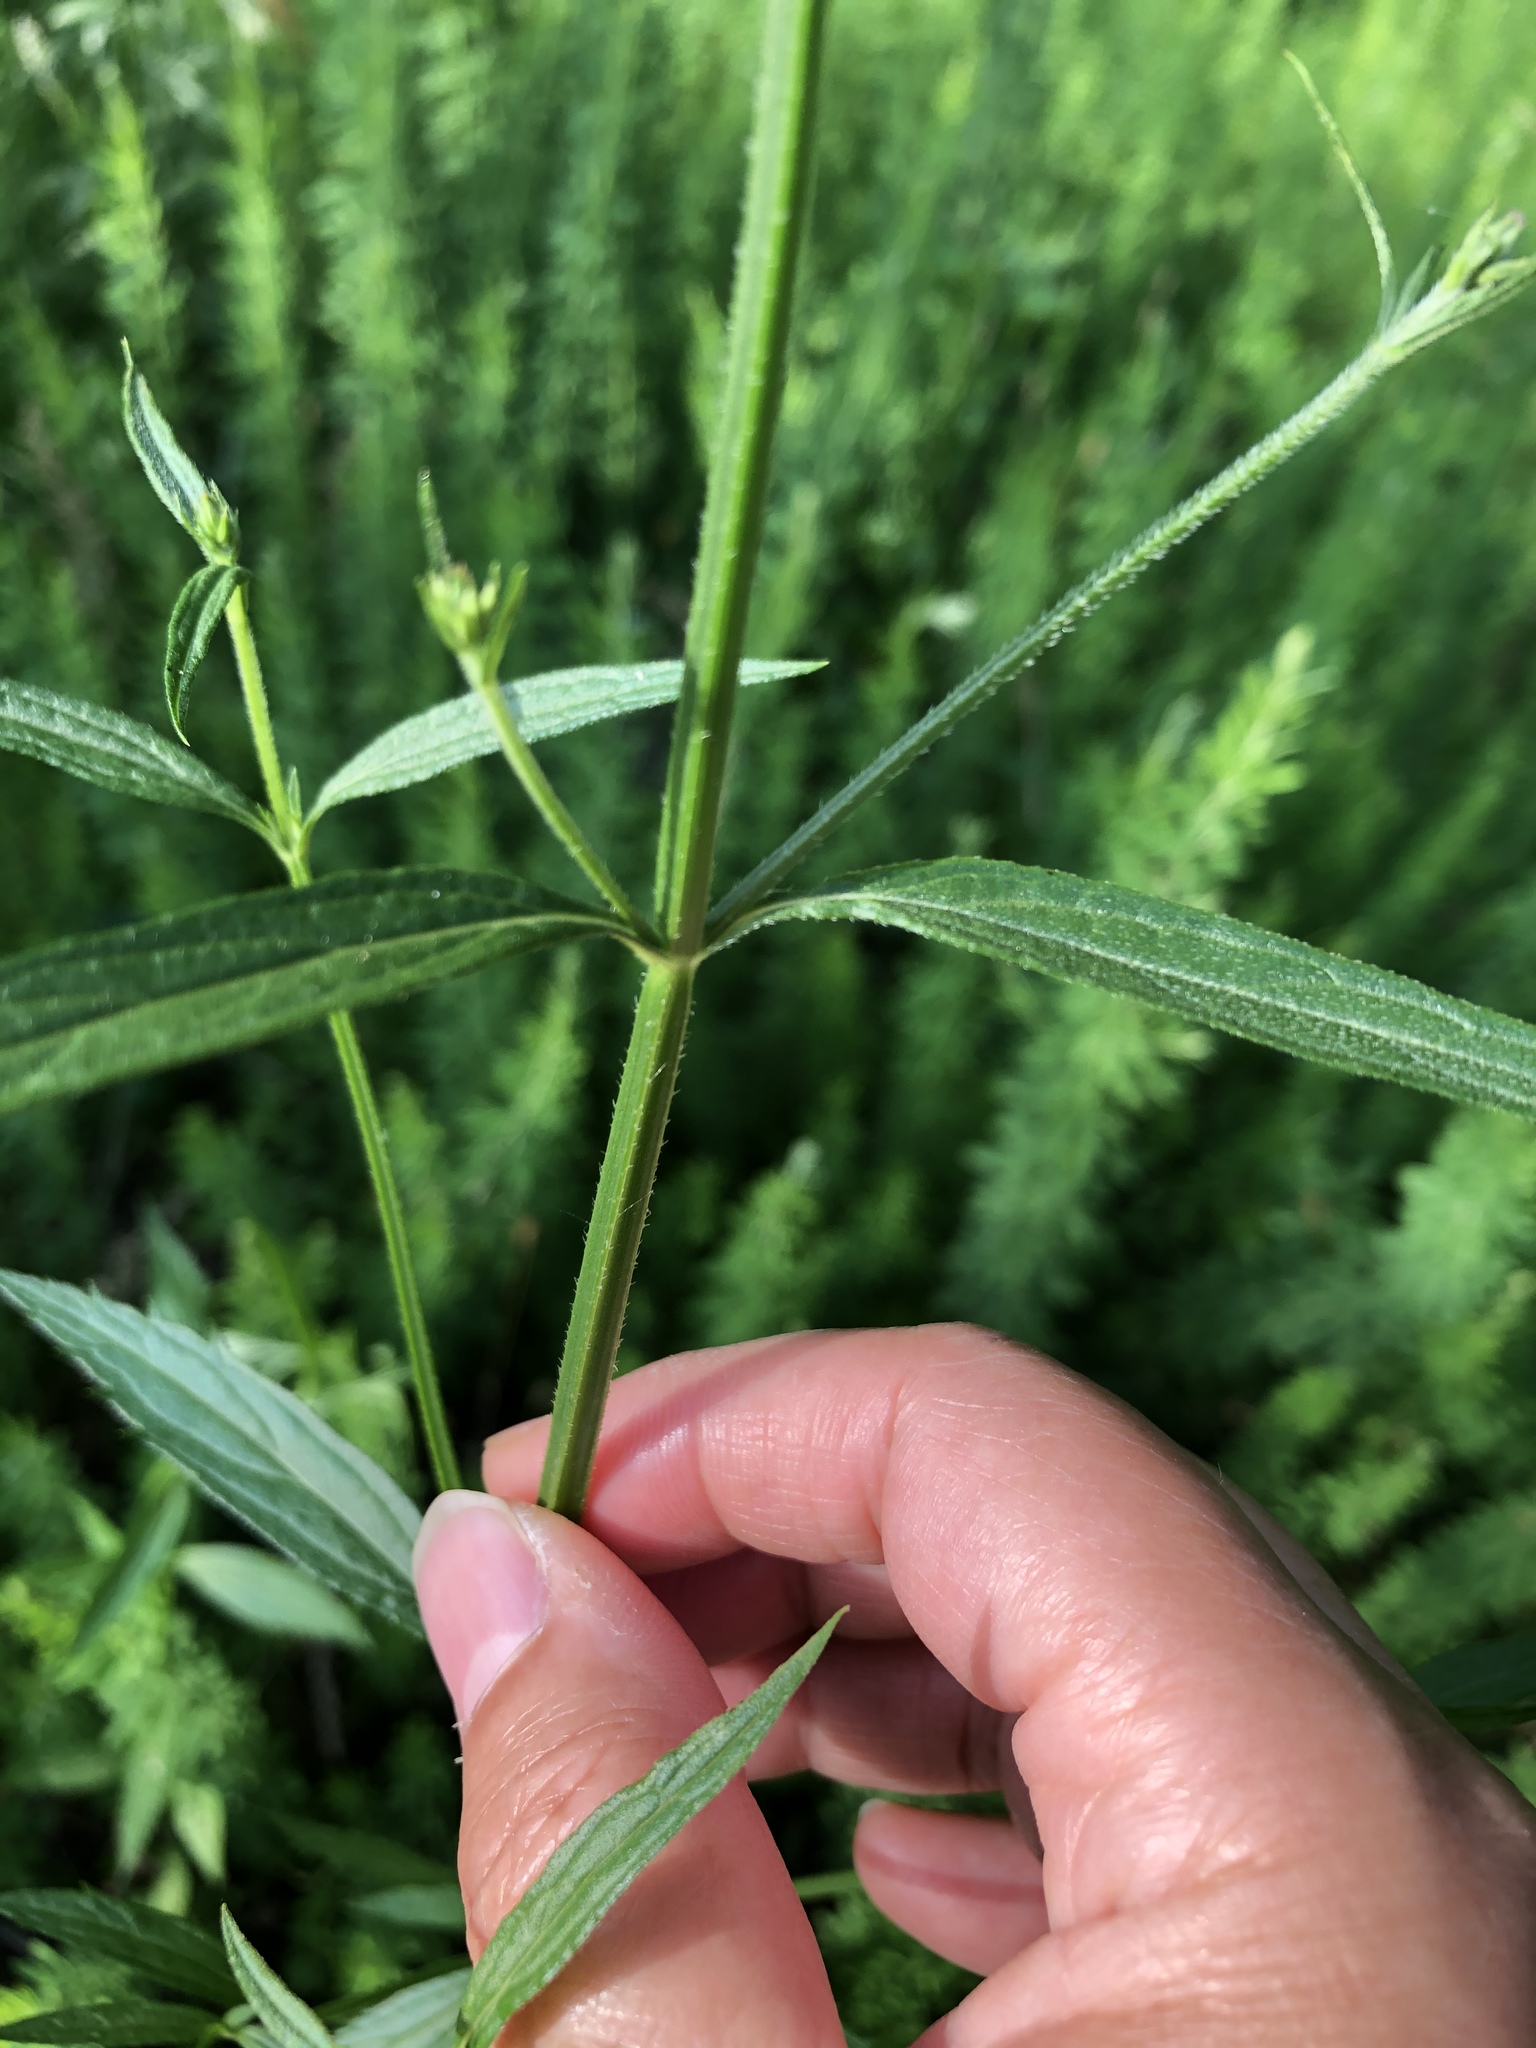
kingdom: Plantae
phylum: Tracheophyta
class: Magnoliopsida
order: Lamiales
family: Verbenaceae
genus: Verbena
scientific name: Verbena brasiliensis
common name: Brazilian vervain
